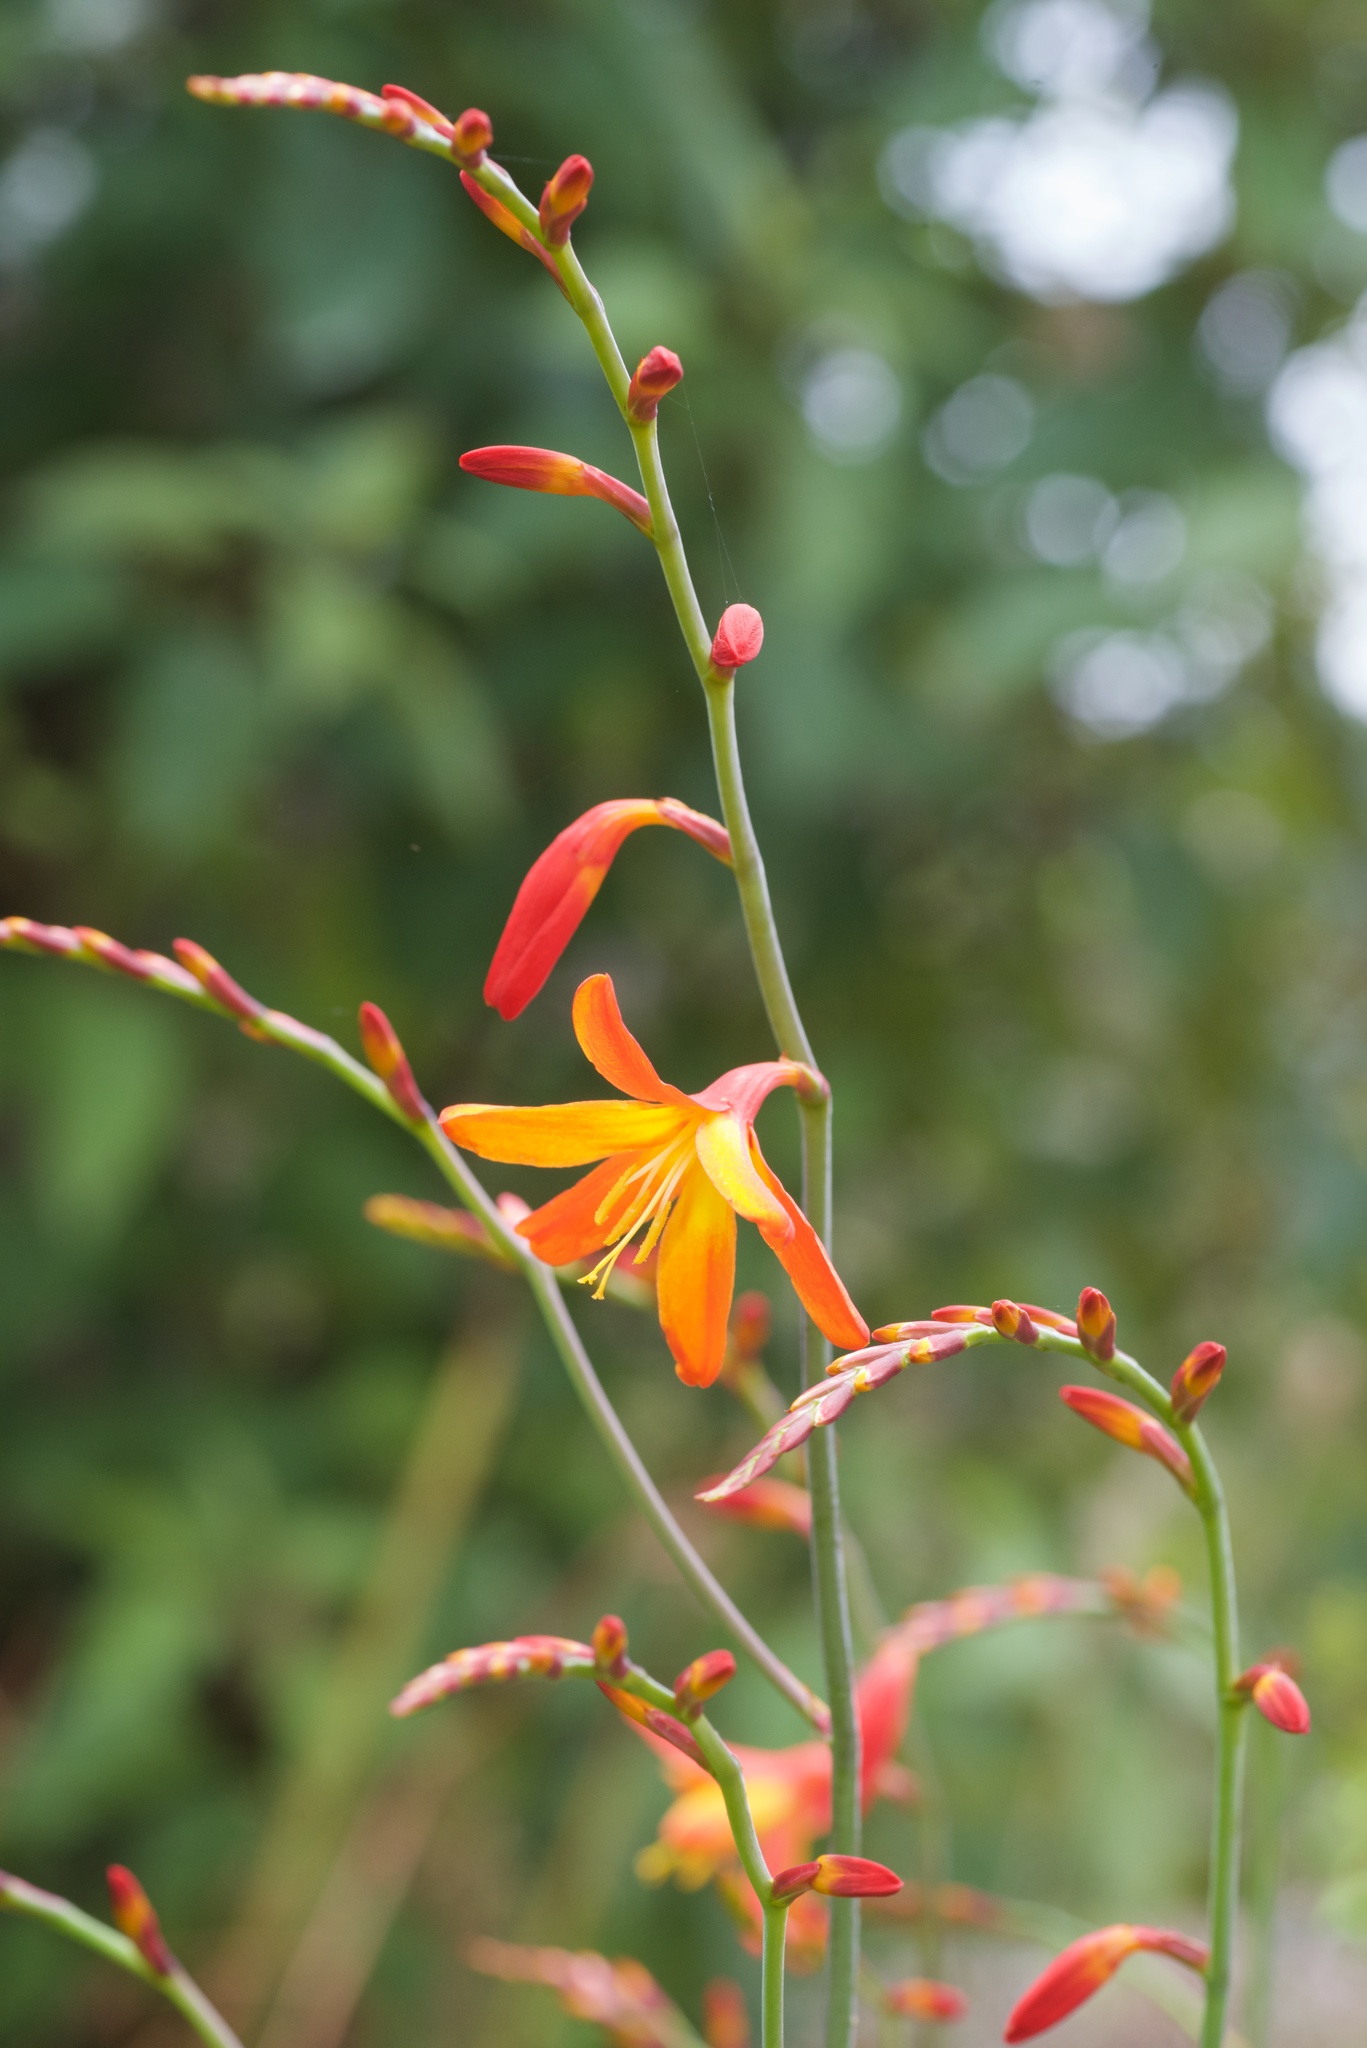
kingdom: Plantae
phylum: Tracheophyta
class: Liliopsida
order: Asparagales
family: Iridaceae
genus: Crocosmia
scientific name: Crocosmia crocosmiiflora
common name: Montbretia
